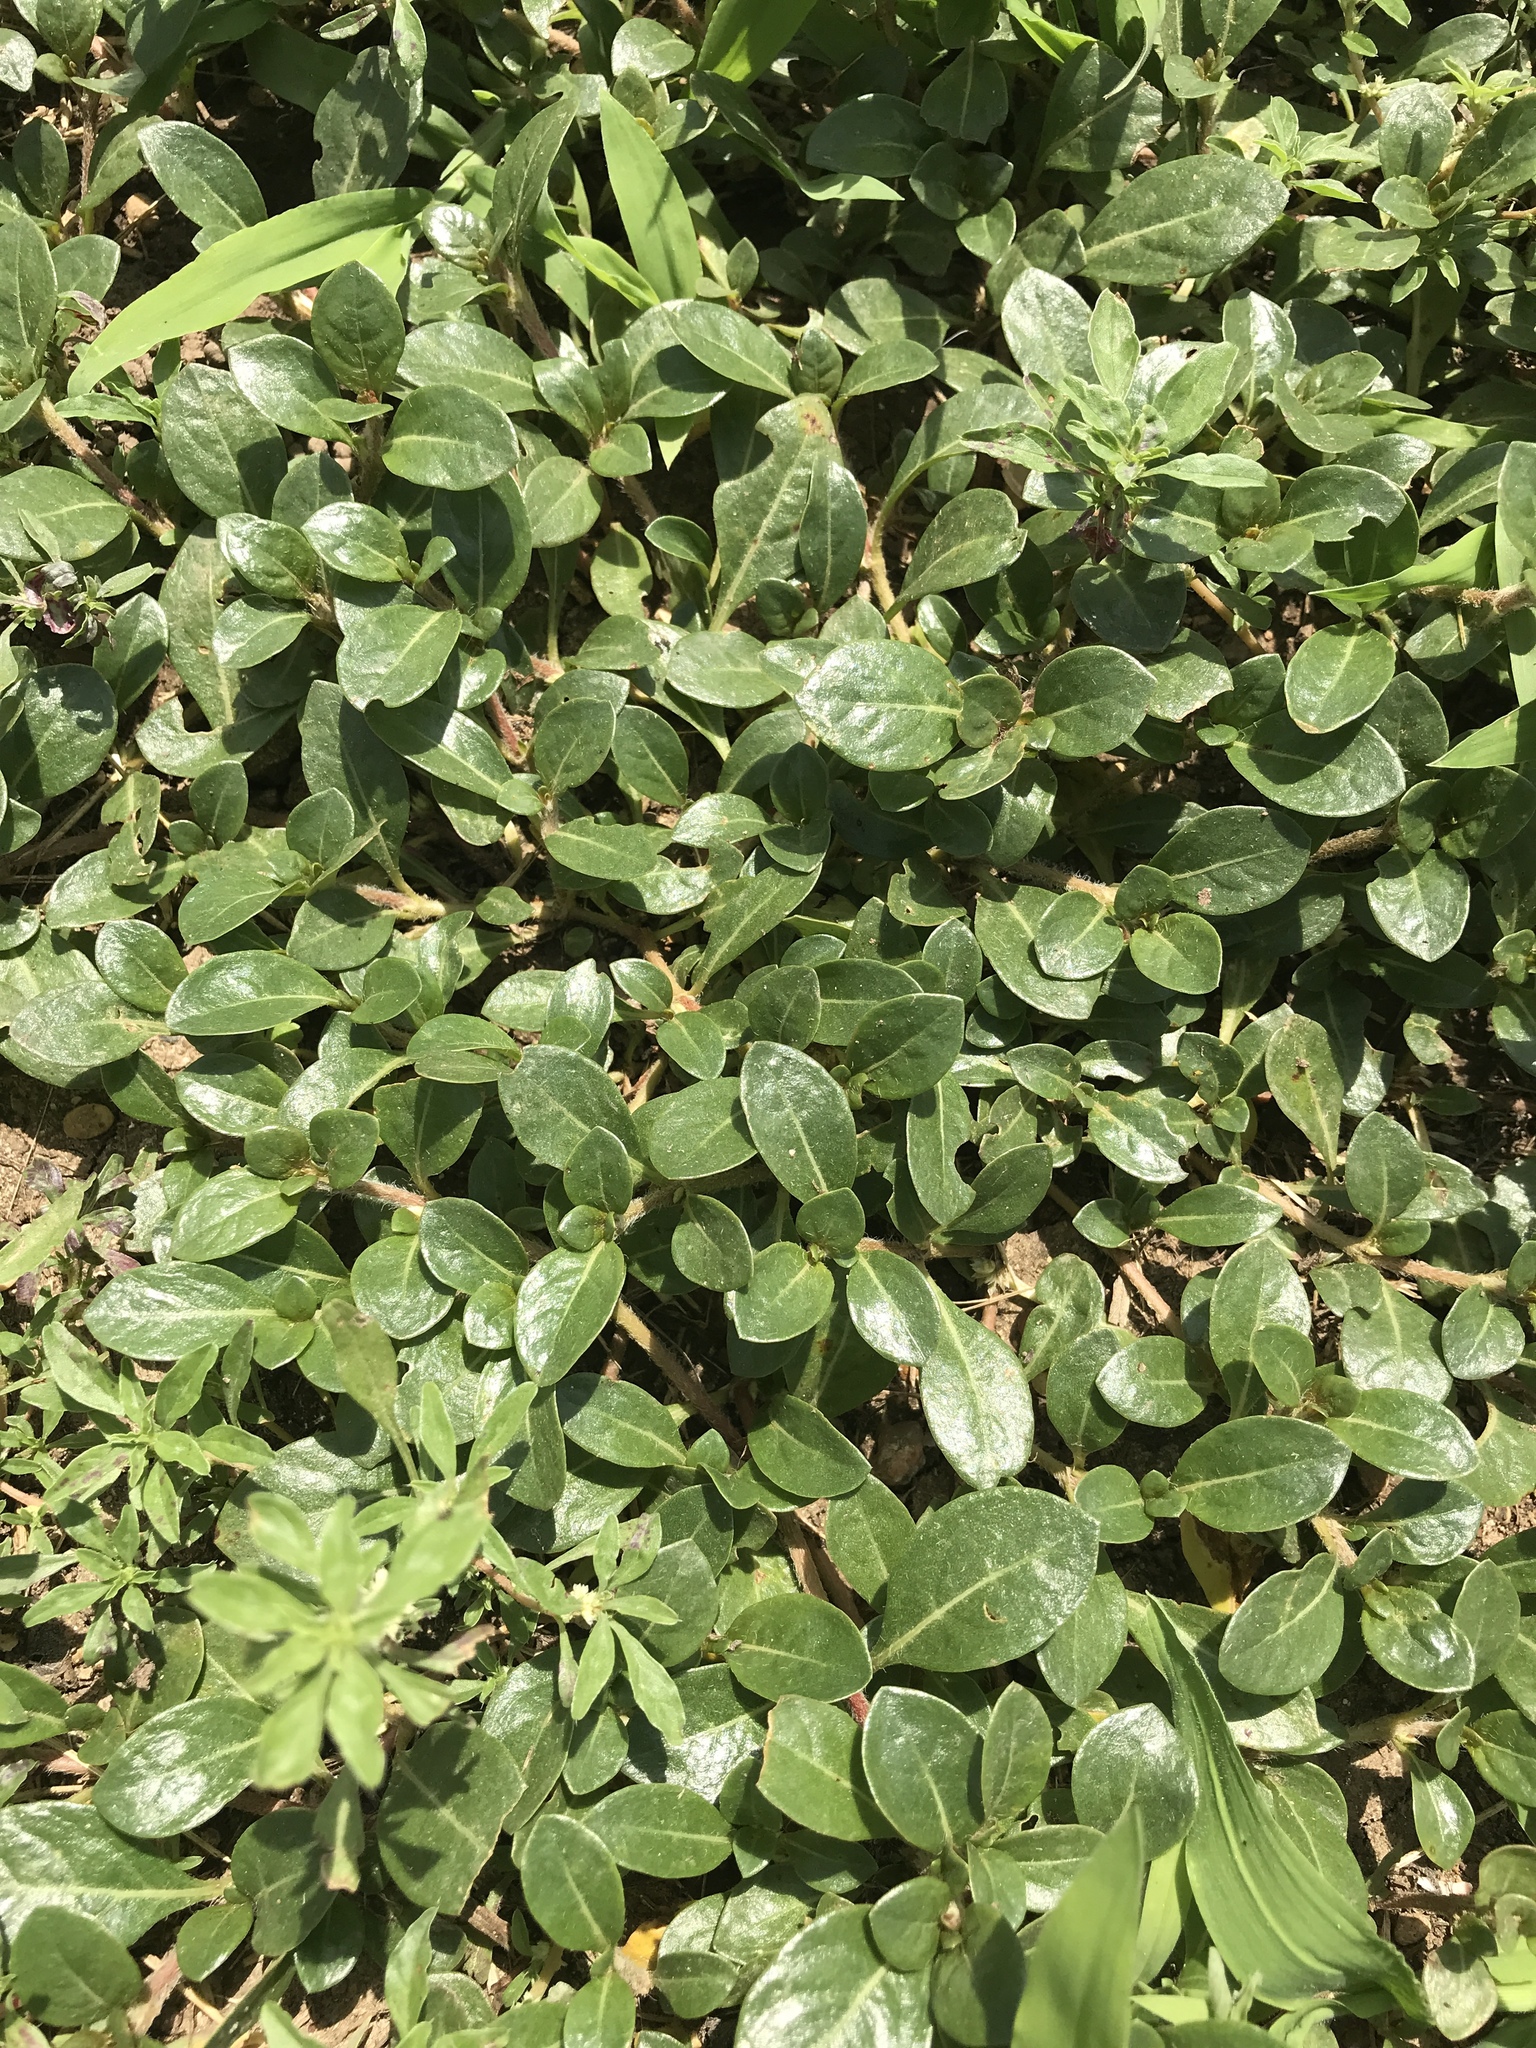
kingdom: Plantae
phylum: Tracheophyta
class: Magnoliopsida
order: Caryophyllales
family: Amaranthaceae
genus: Alternanthera
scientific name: Alternanthera caracasana
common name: Washerwoman
